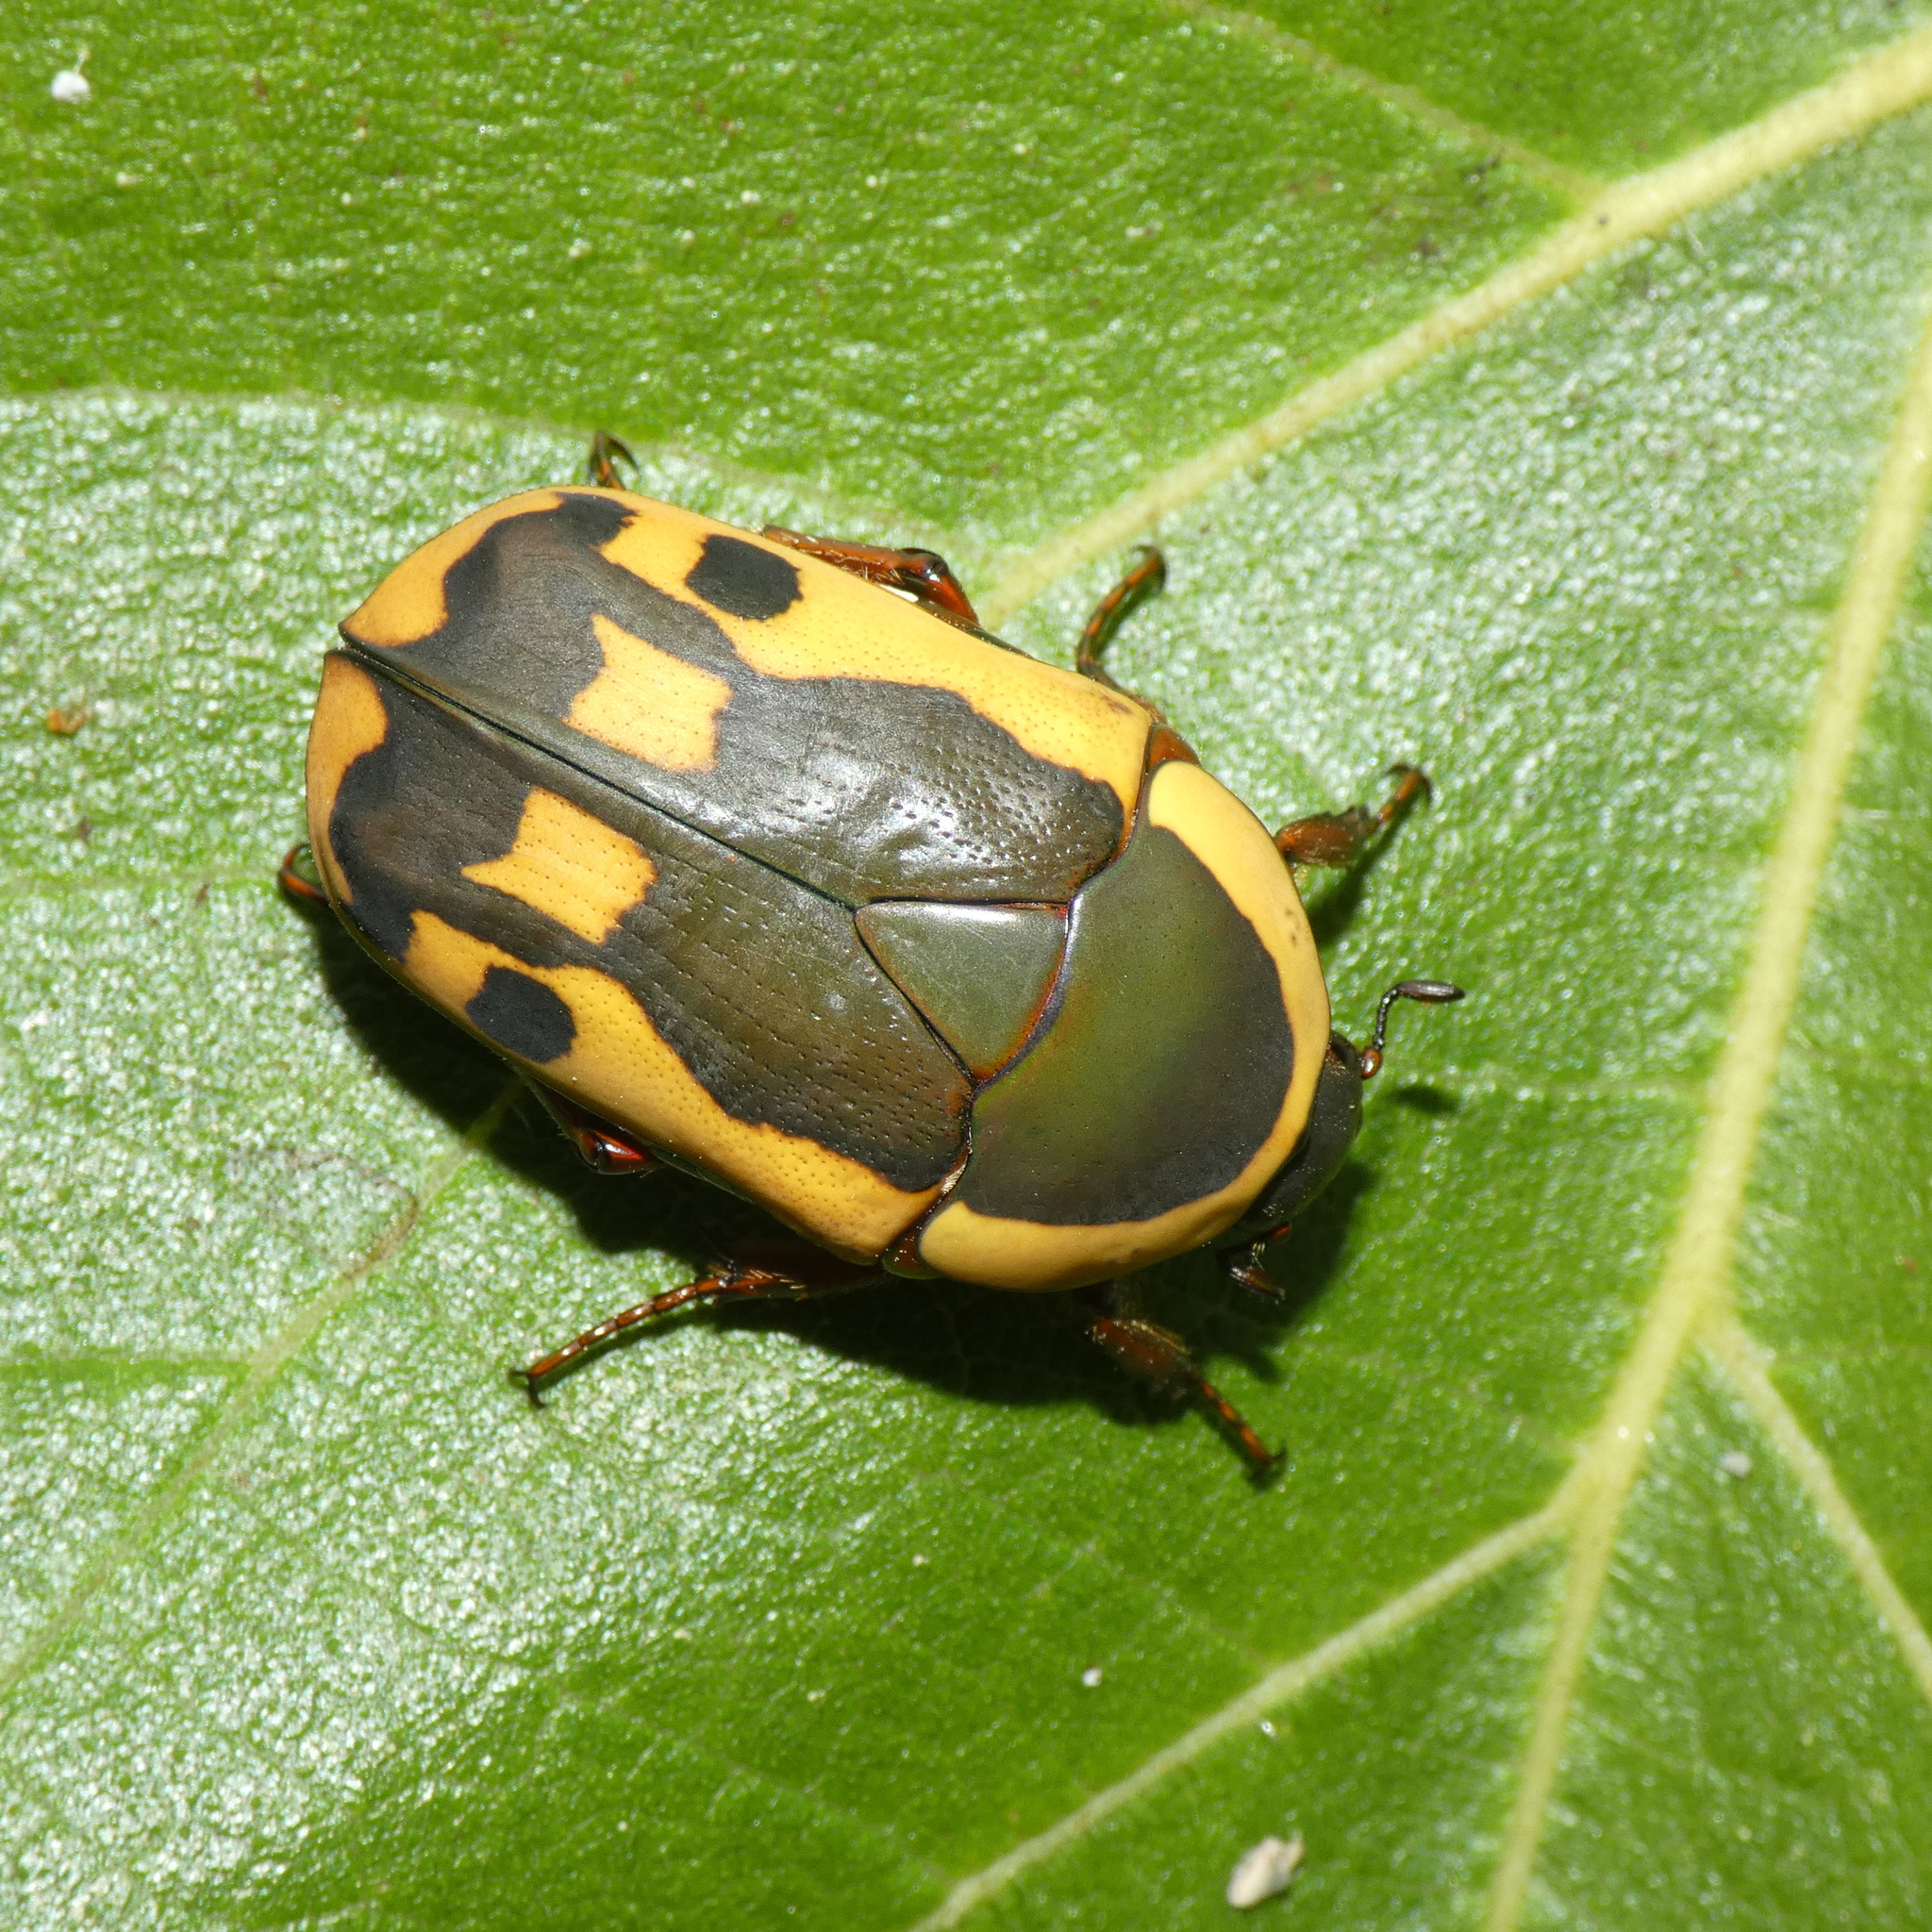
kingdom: Animalia
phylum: Arthropoda
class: Insecta
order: Coleoptera
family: Scarabaeidae
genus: Marmylida
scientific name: Marmylida impressa
